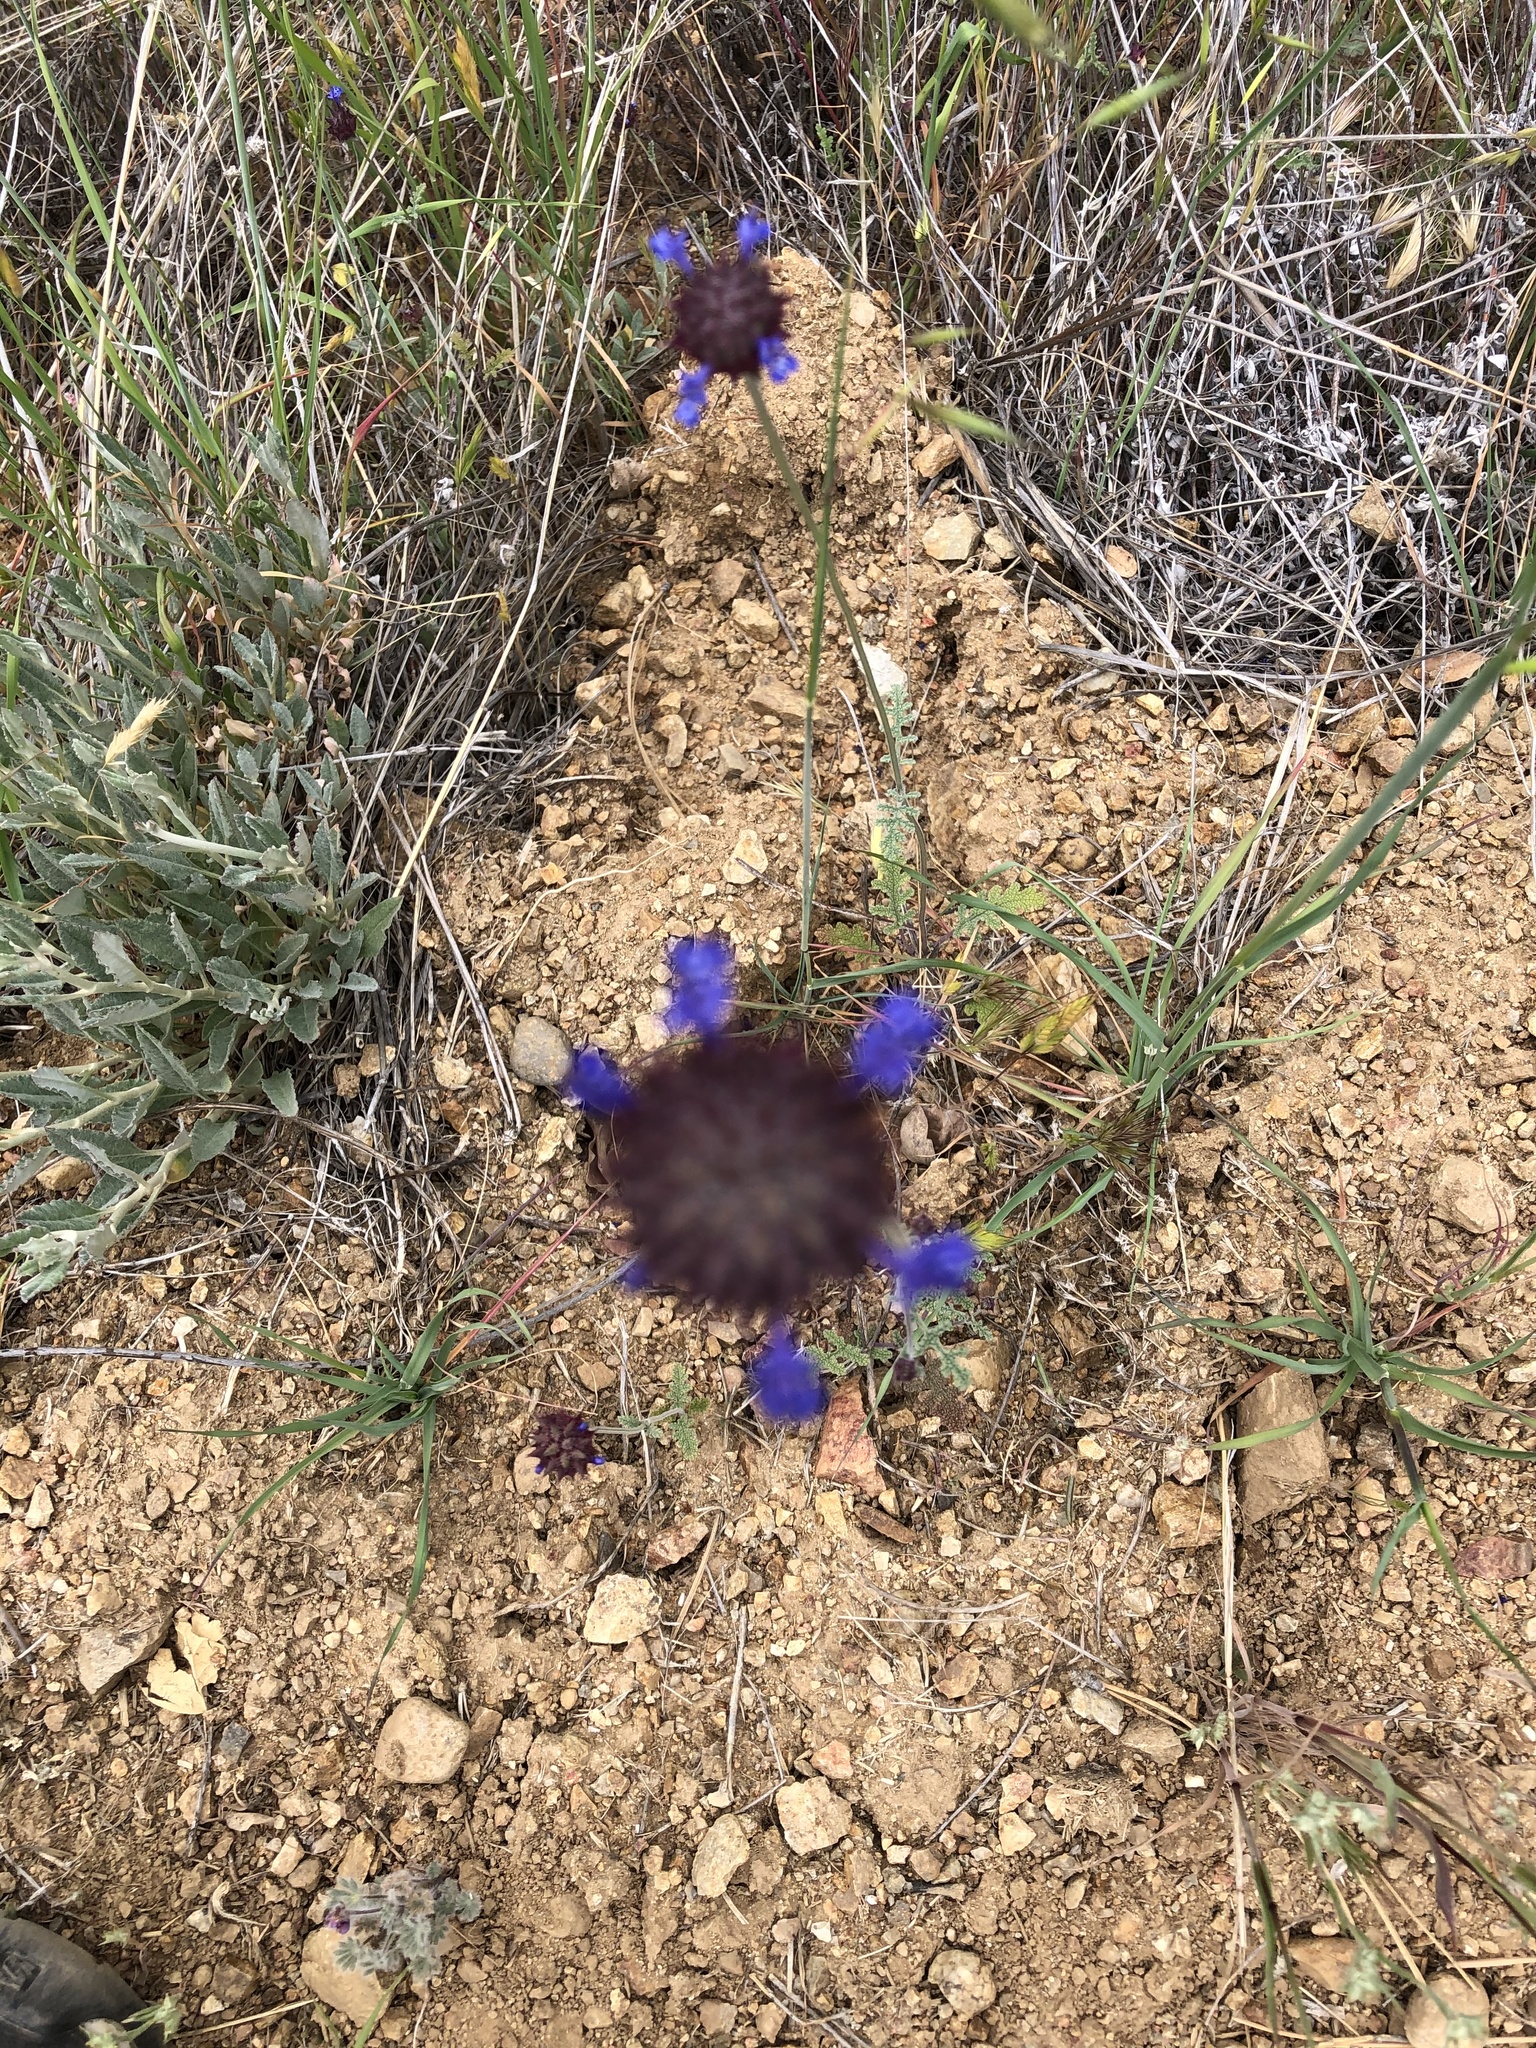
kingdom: Plantae
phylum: Tracheophyta
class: Magnoliopsida
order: Lamiales
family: Lamiaceae
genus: Salvia
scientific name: Salvia columbariae
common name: Chia
